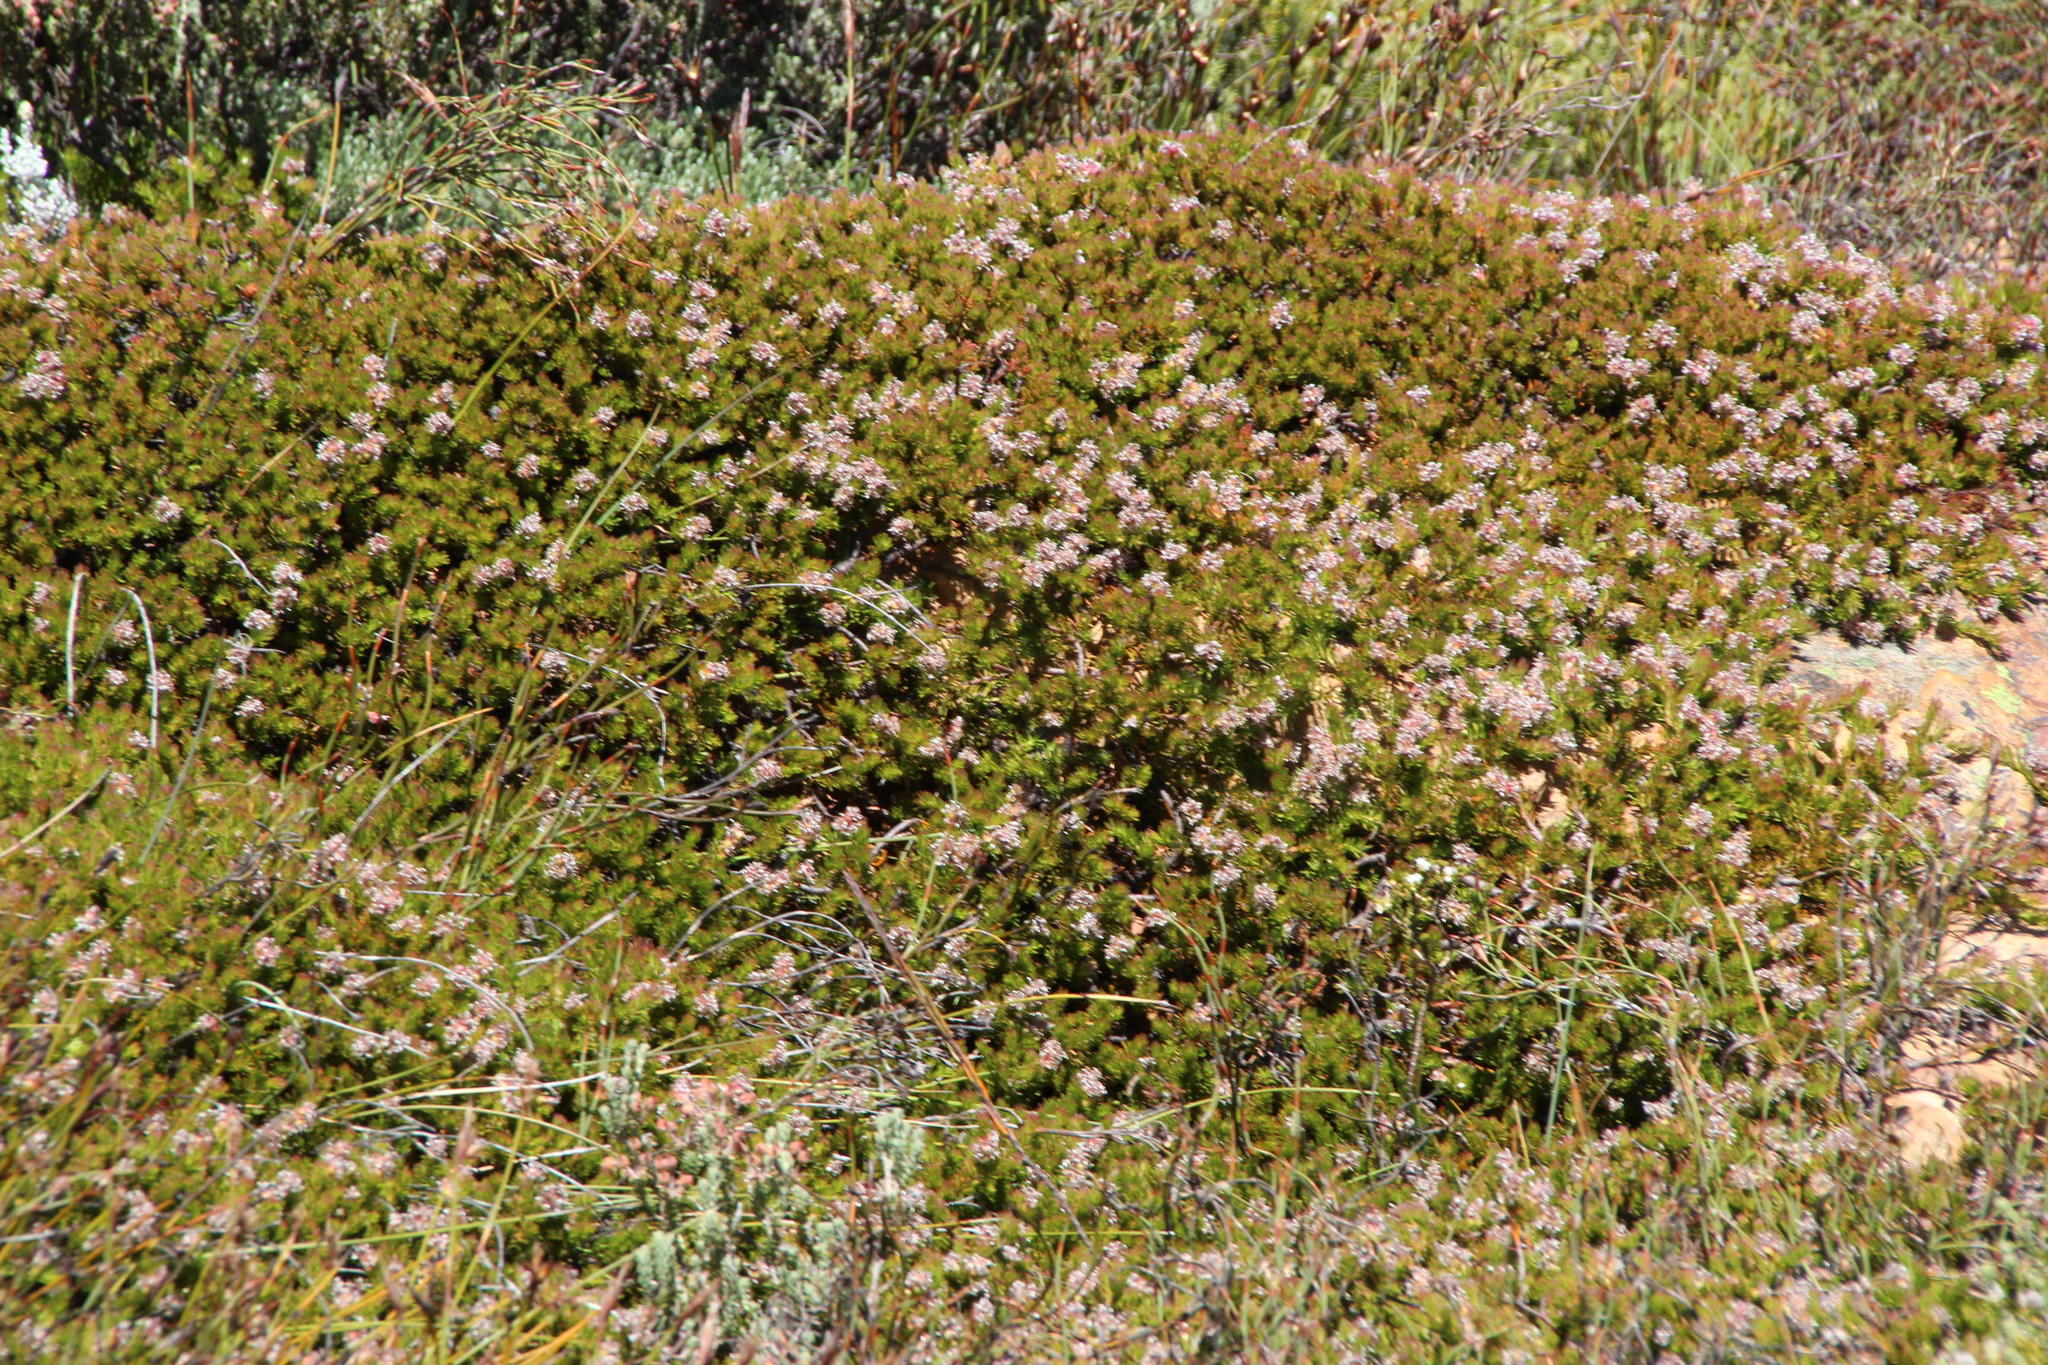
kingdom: Plantae
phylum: Tracheophyta
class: Magnoliopsida
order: Proteales
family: Proteaceae
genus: Spatalla
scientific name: Spatalla confusa
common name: Long-tube spoon
